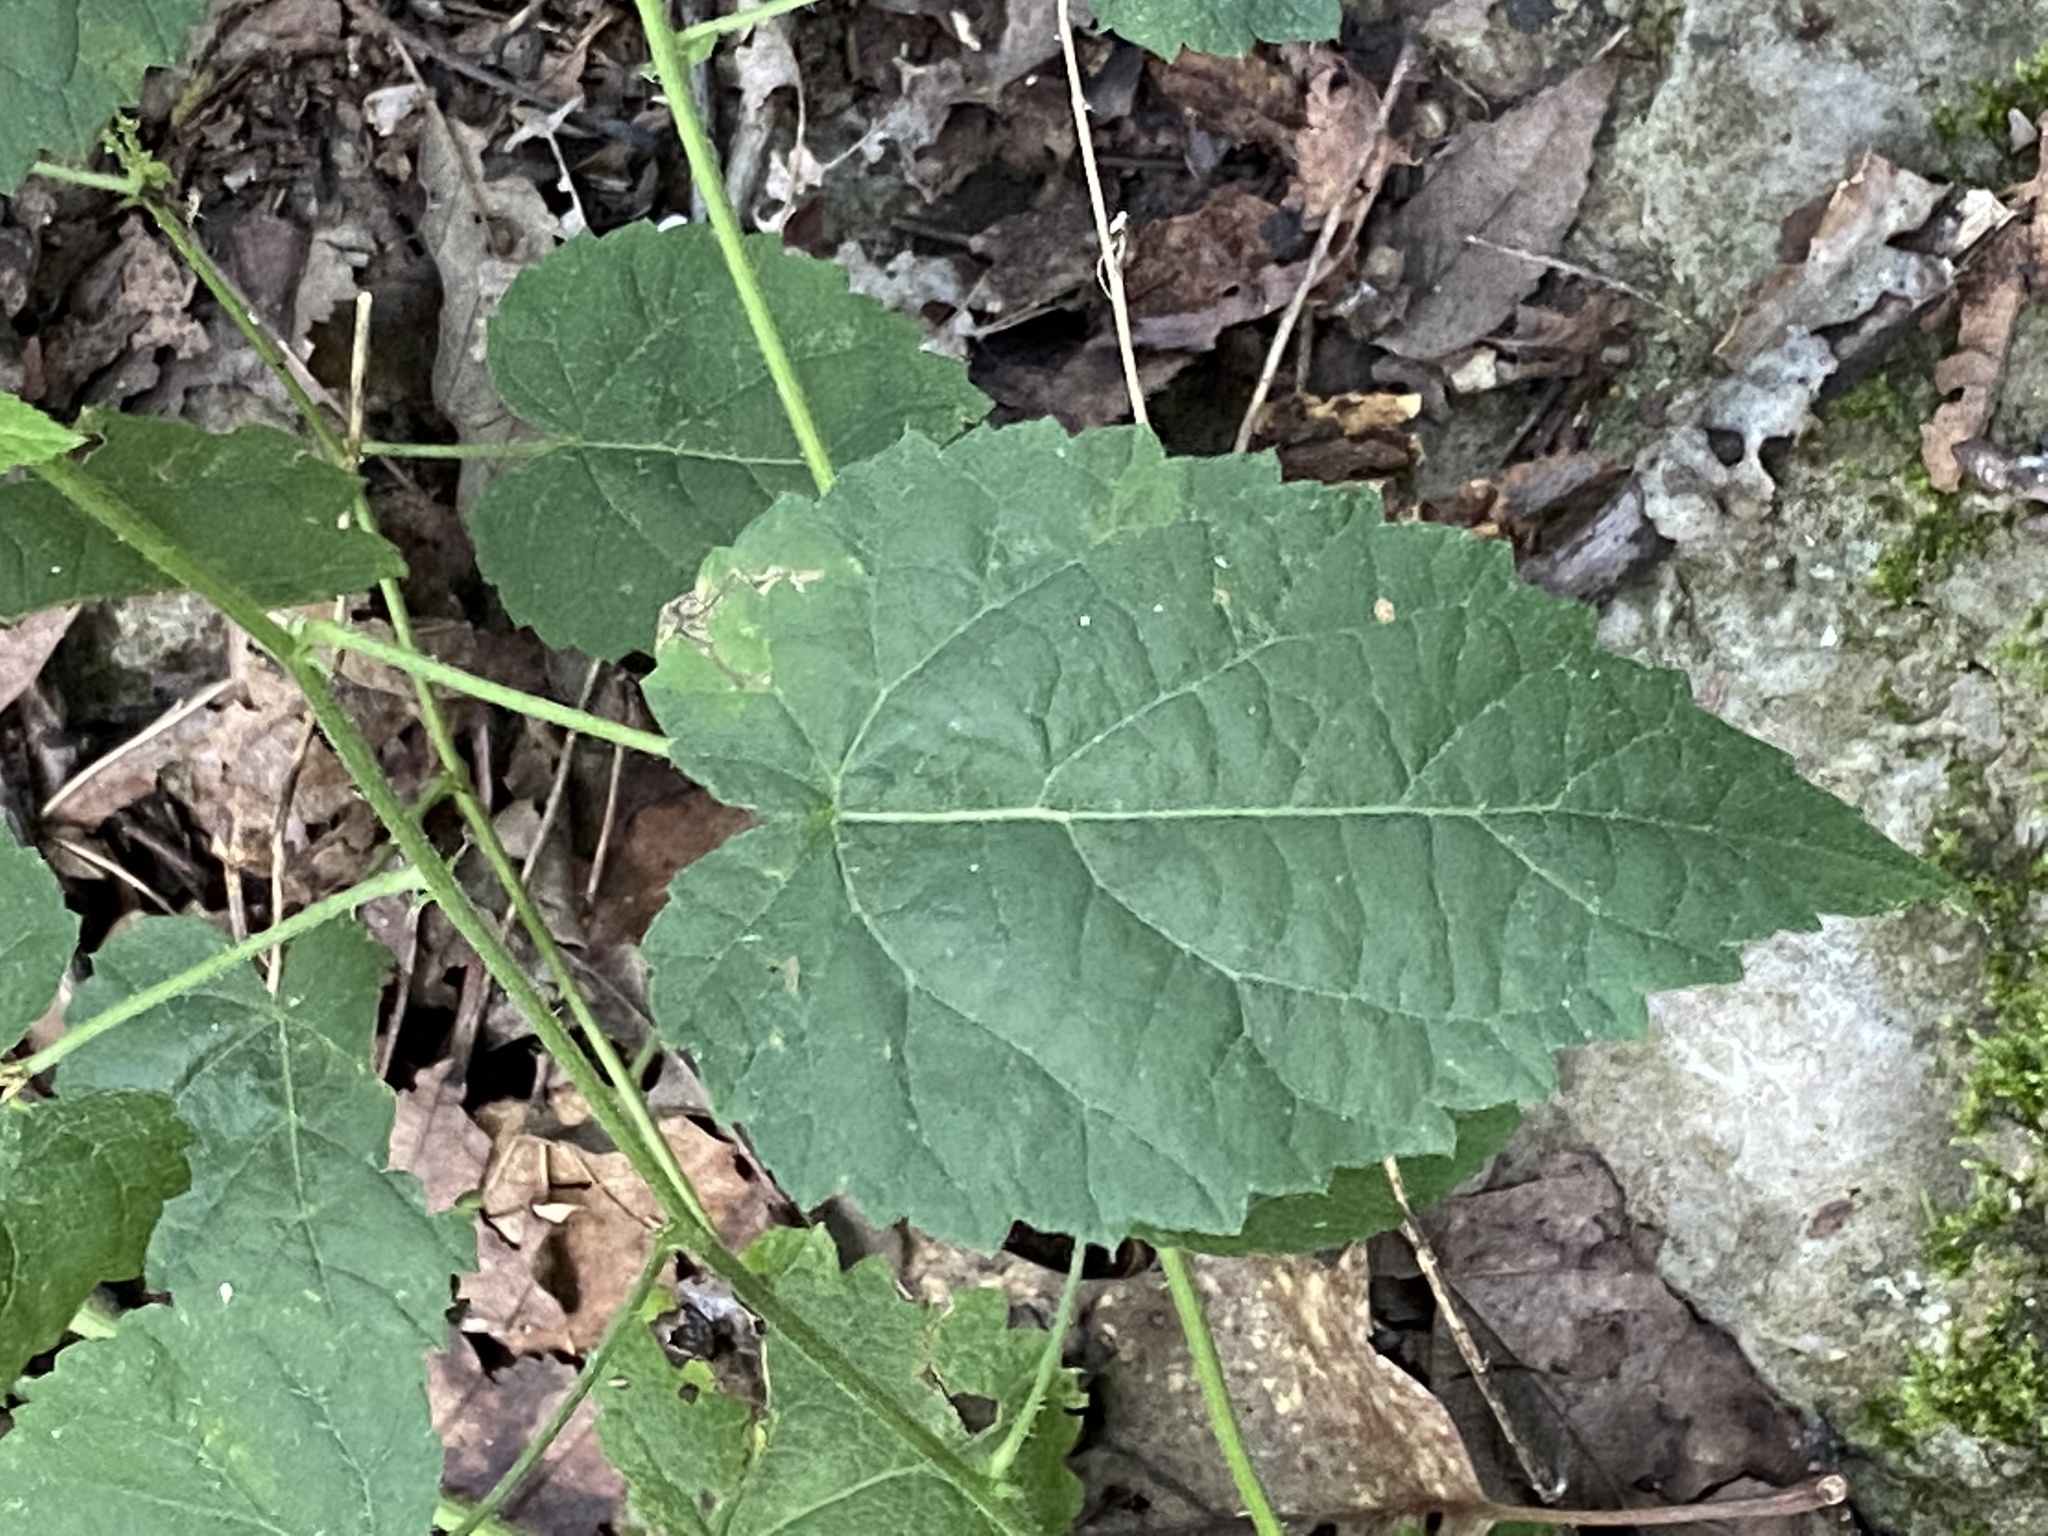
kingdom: Plantae
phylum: Tracheophyta
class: Magnoliopsida
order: Malpighiales
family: Euphorbiaceae
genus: Tragia
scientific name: Tragia cordata
